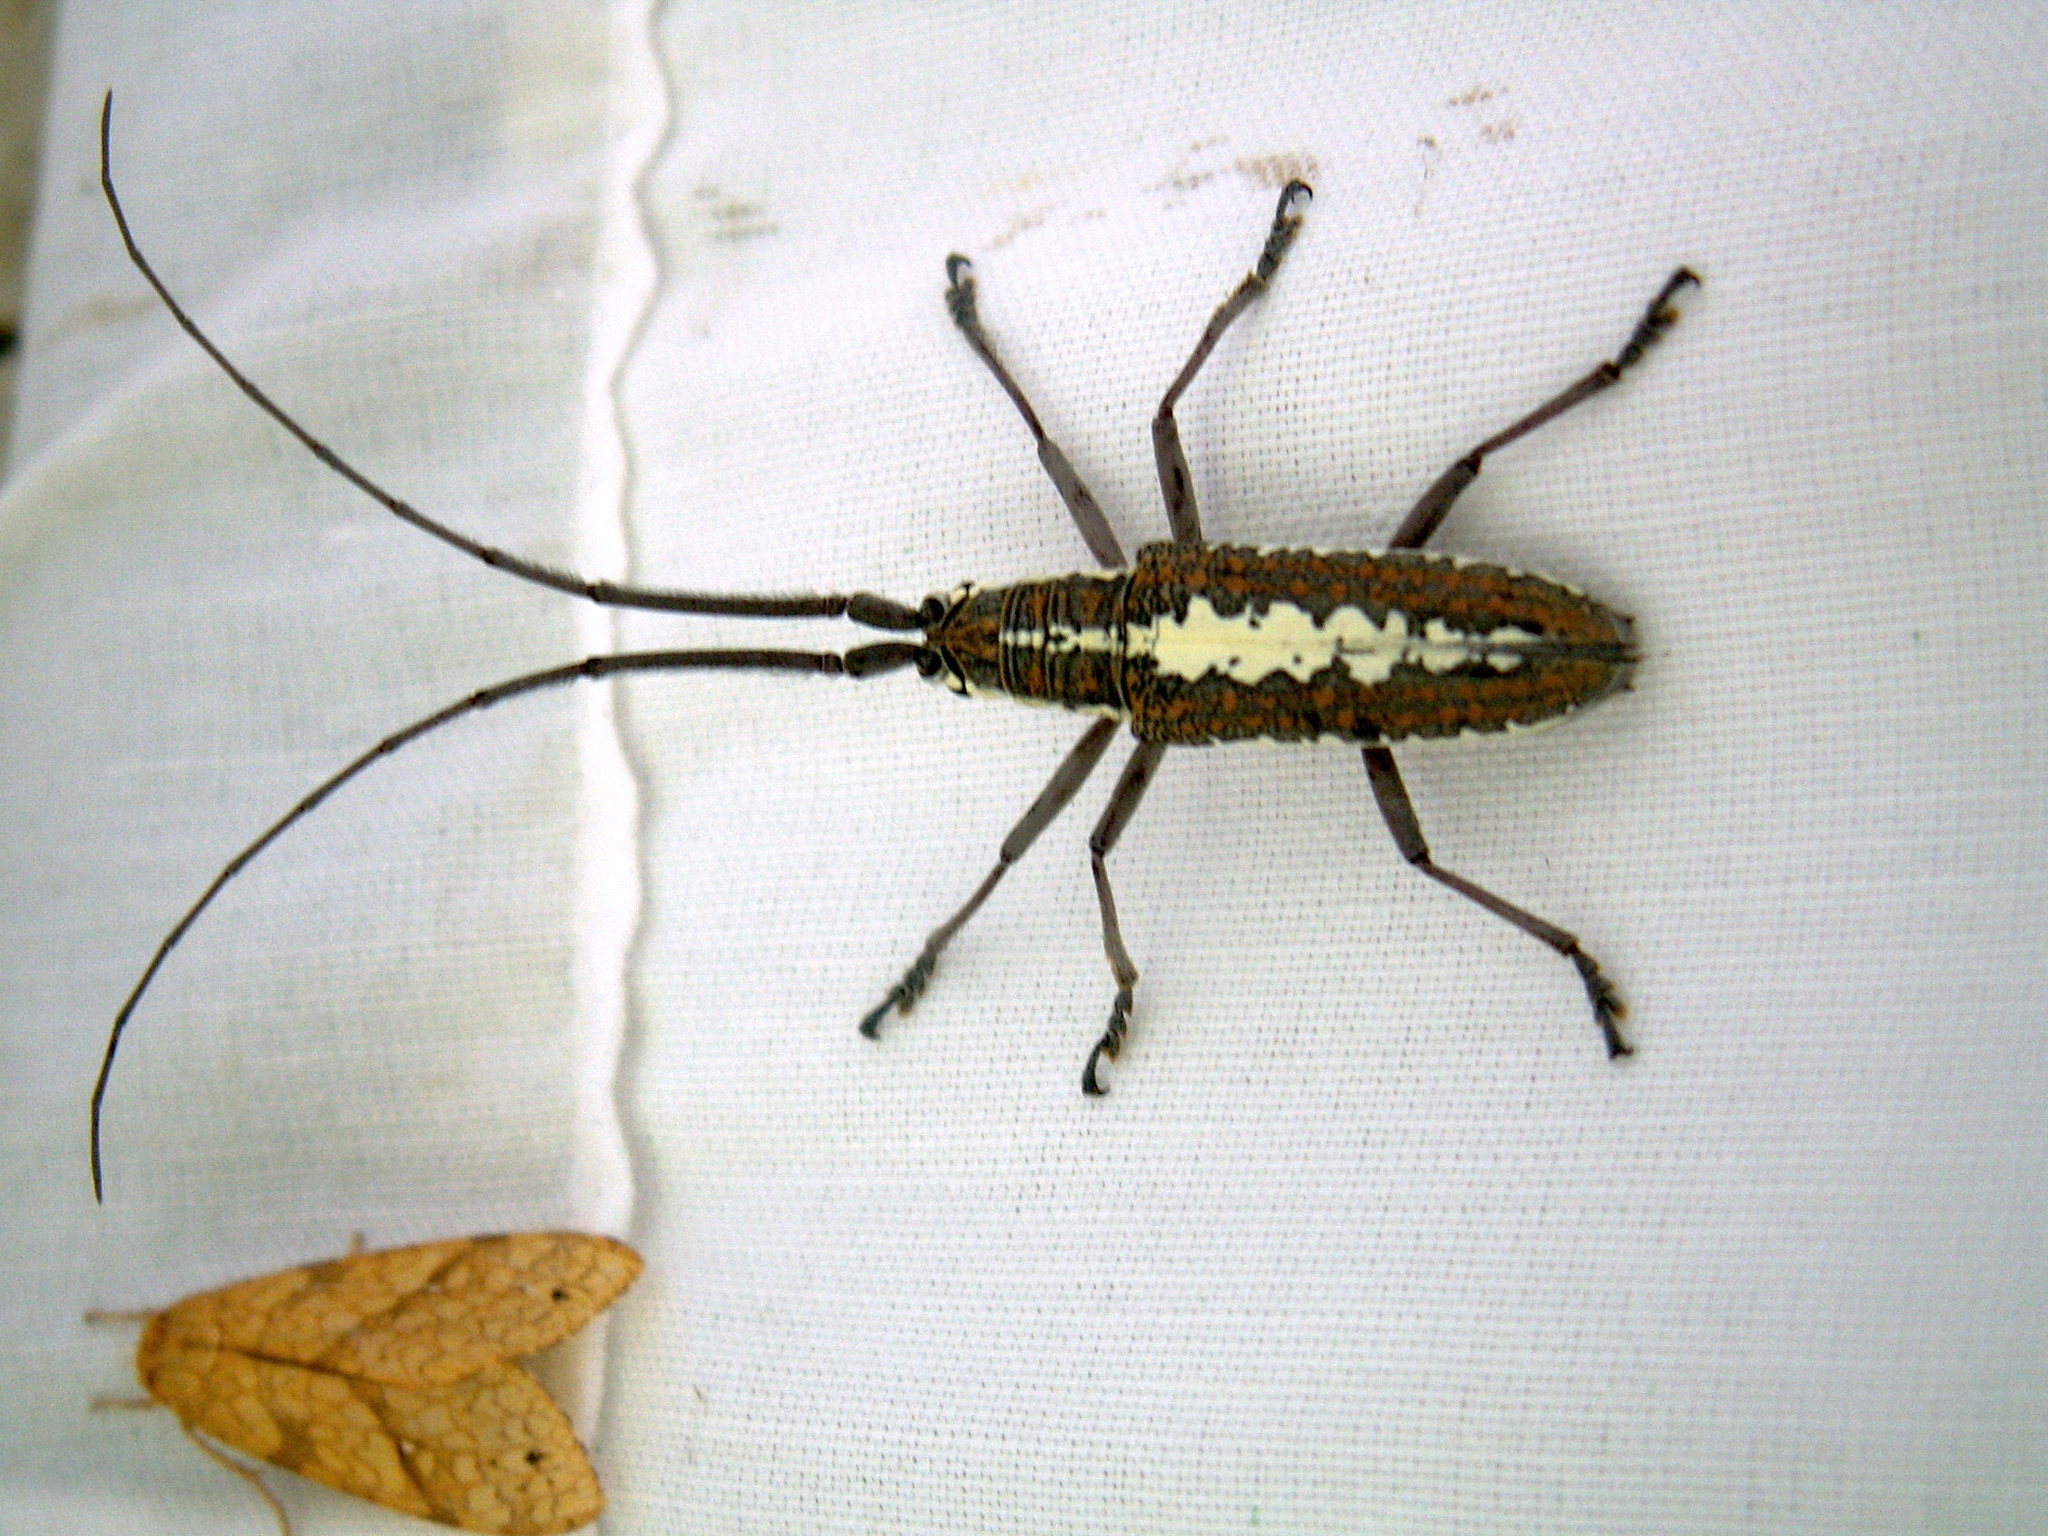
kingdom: Animalia
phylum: Arthropoda
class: Insecta
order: Coleoptera
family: Cerambycidae
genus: Neoptychodes
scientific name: Neoptychodes trilineatus
